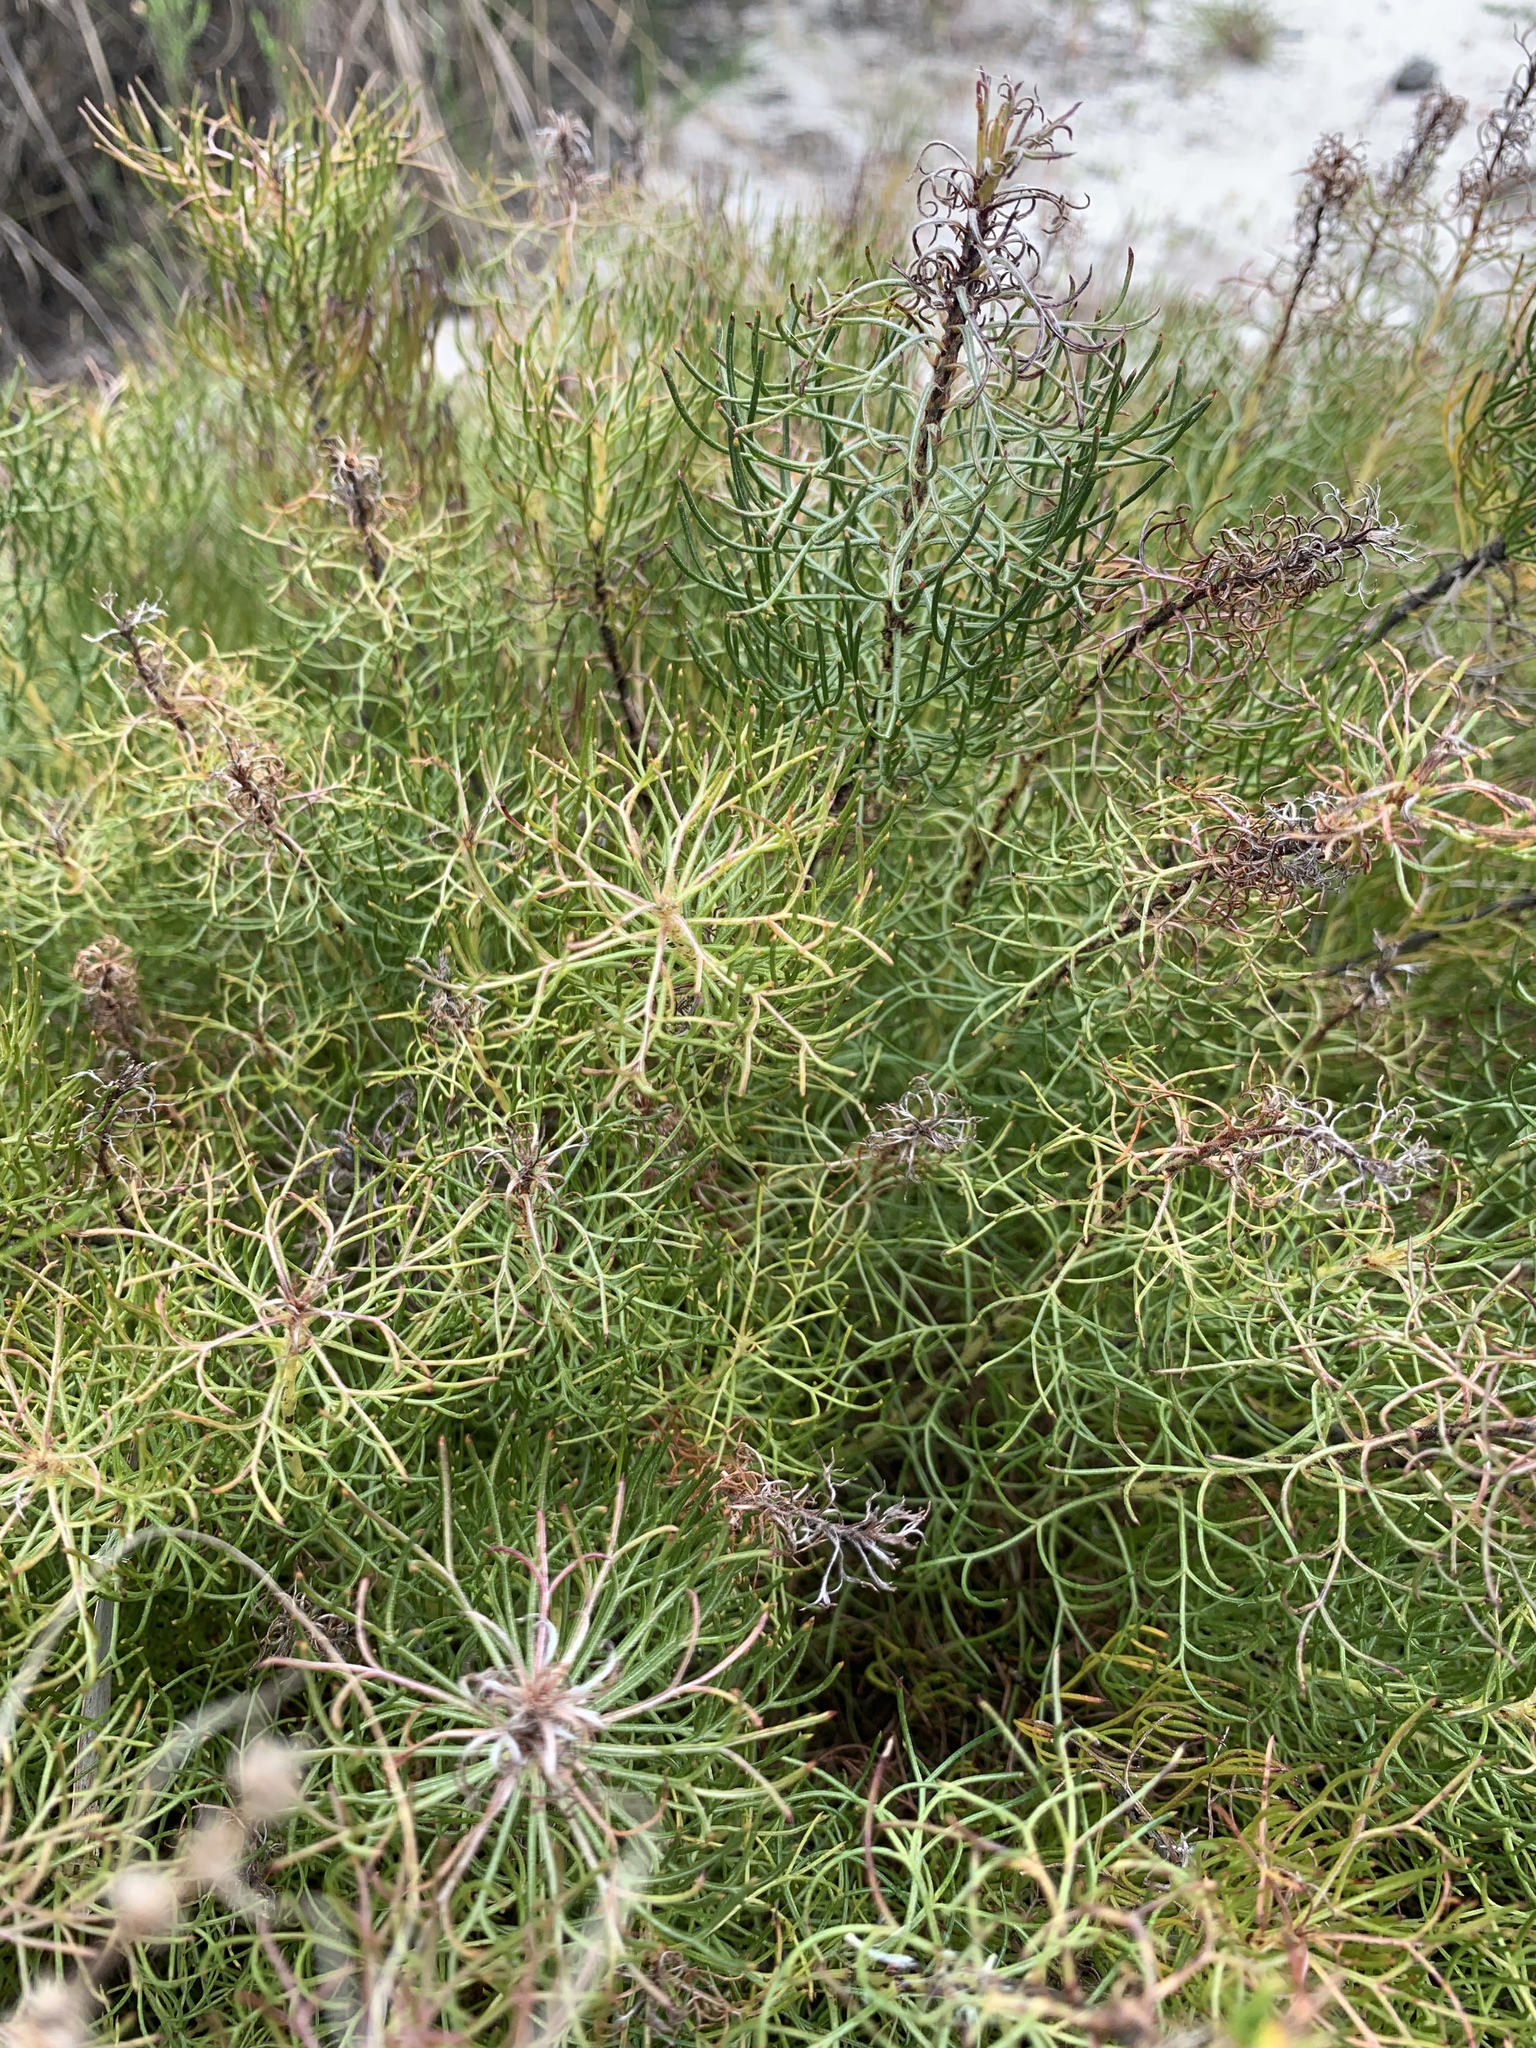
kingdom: Plantae
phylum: Tracheophyta
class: Magnoliopsida
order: Proteales
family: Proteaceae
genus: Serruria
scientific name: Serruria cyanoides
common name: Wynberg spiderhead
